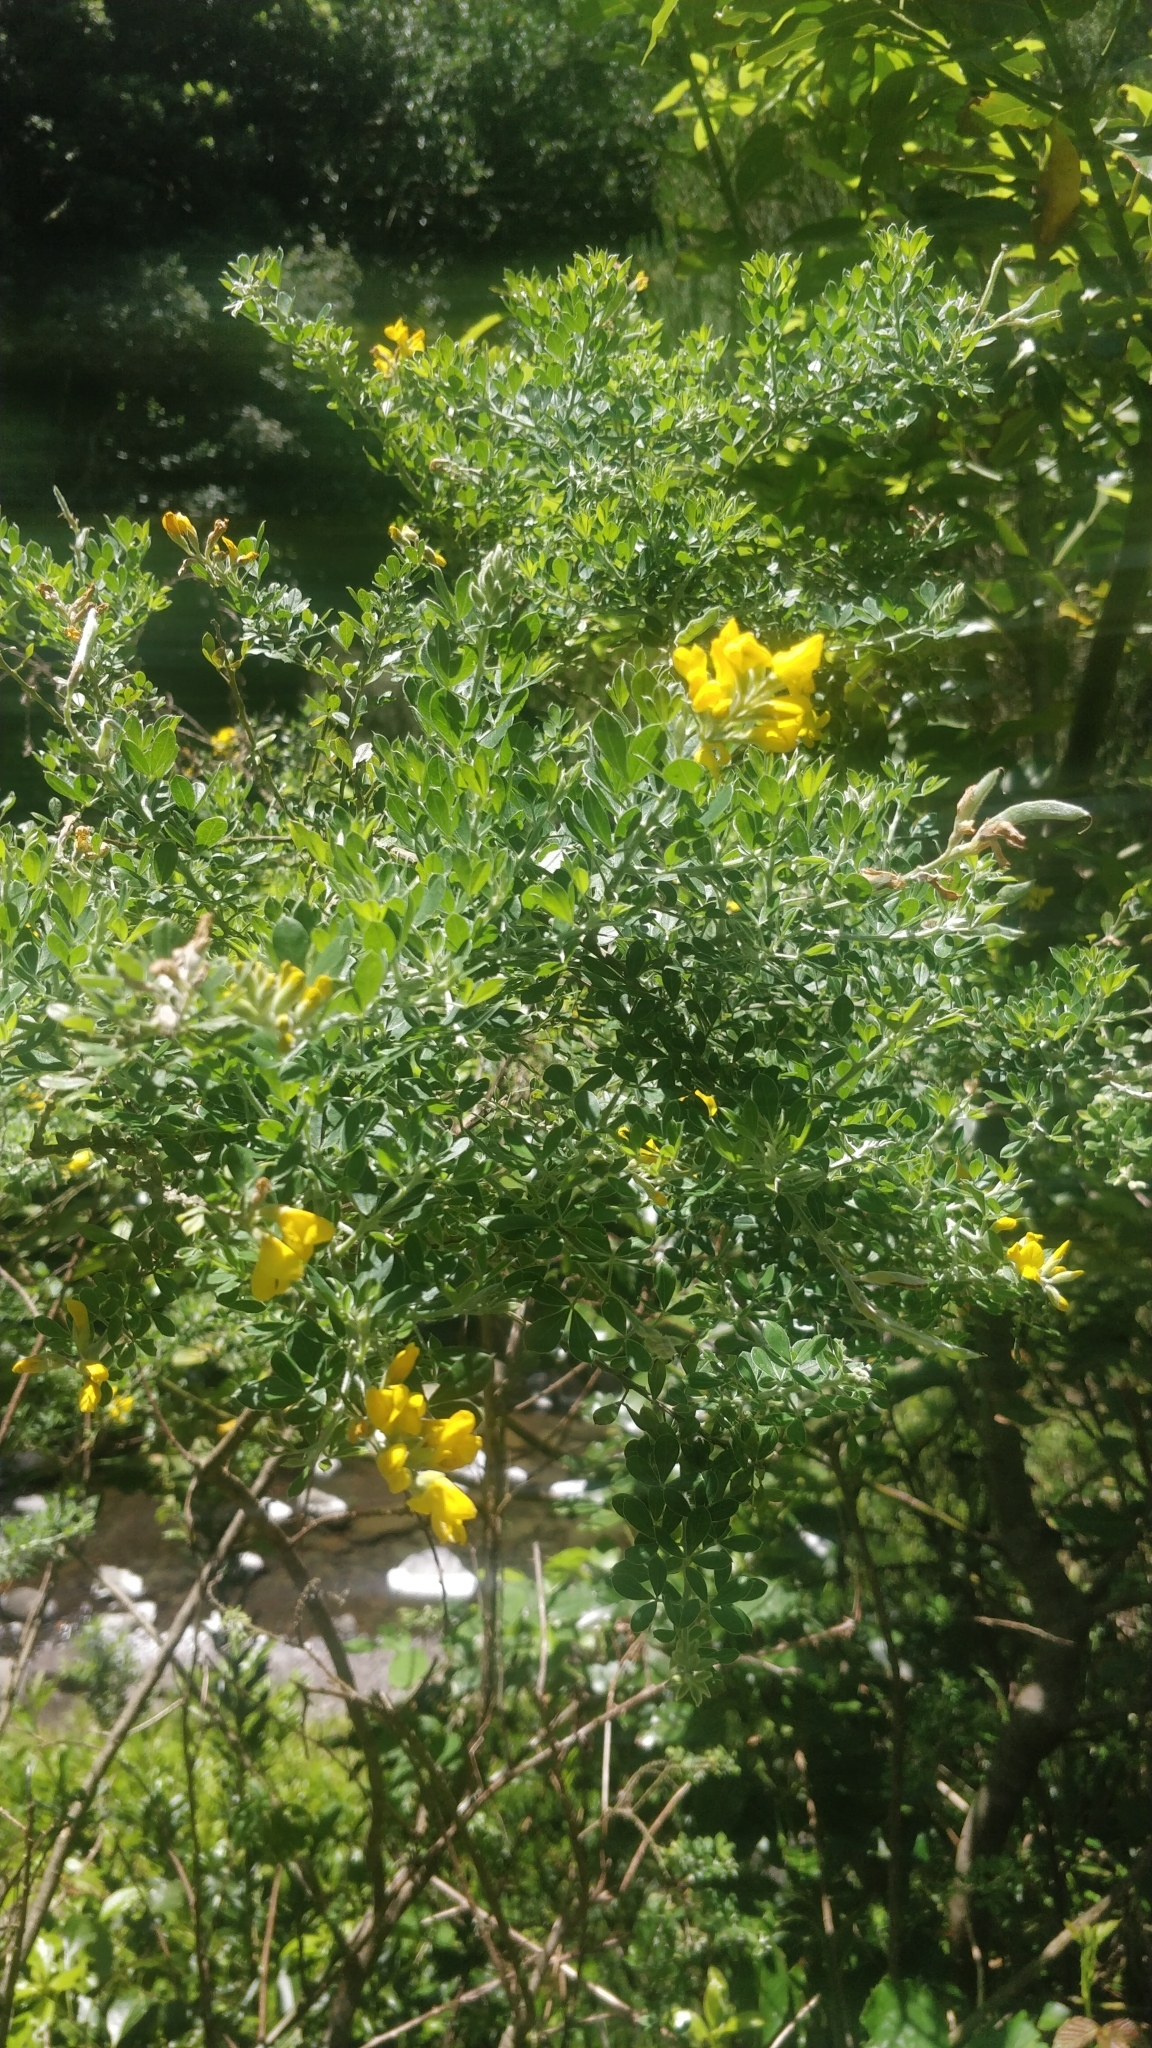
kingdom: Plantae
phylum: Tracheophyta
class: Magnoliopsida
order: Fabales
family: Fabaceae
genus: Genista
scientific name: Genista maderensis
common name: Madeira dyer's greenweed
